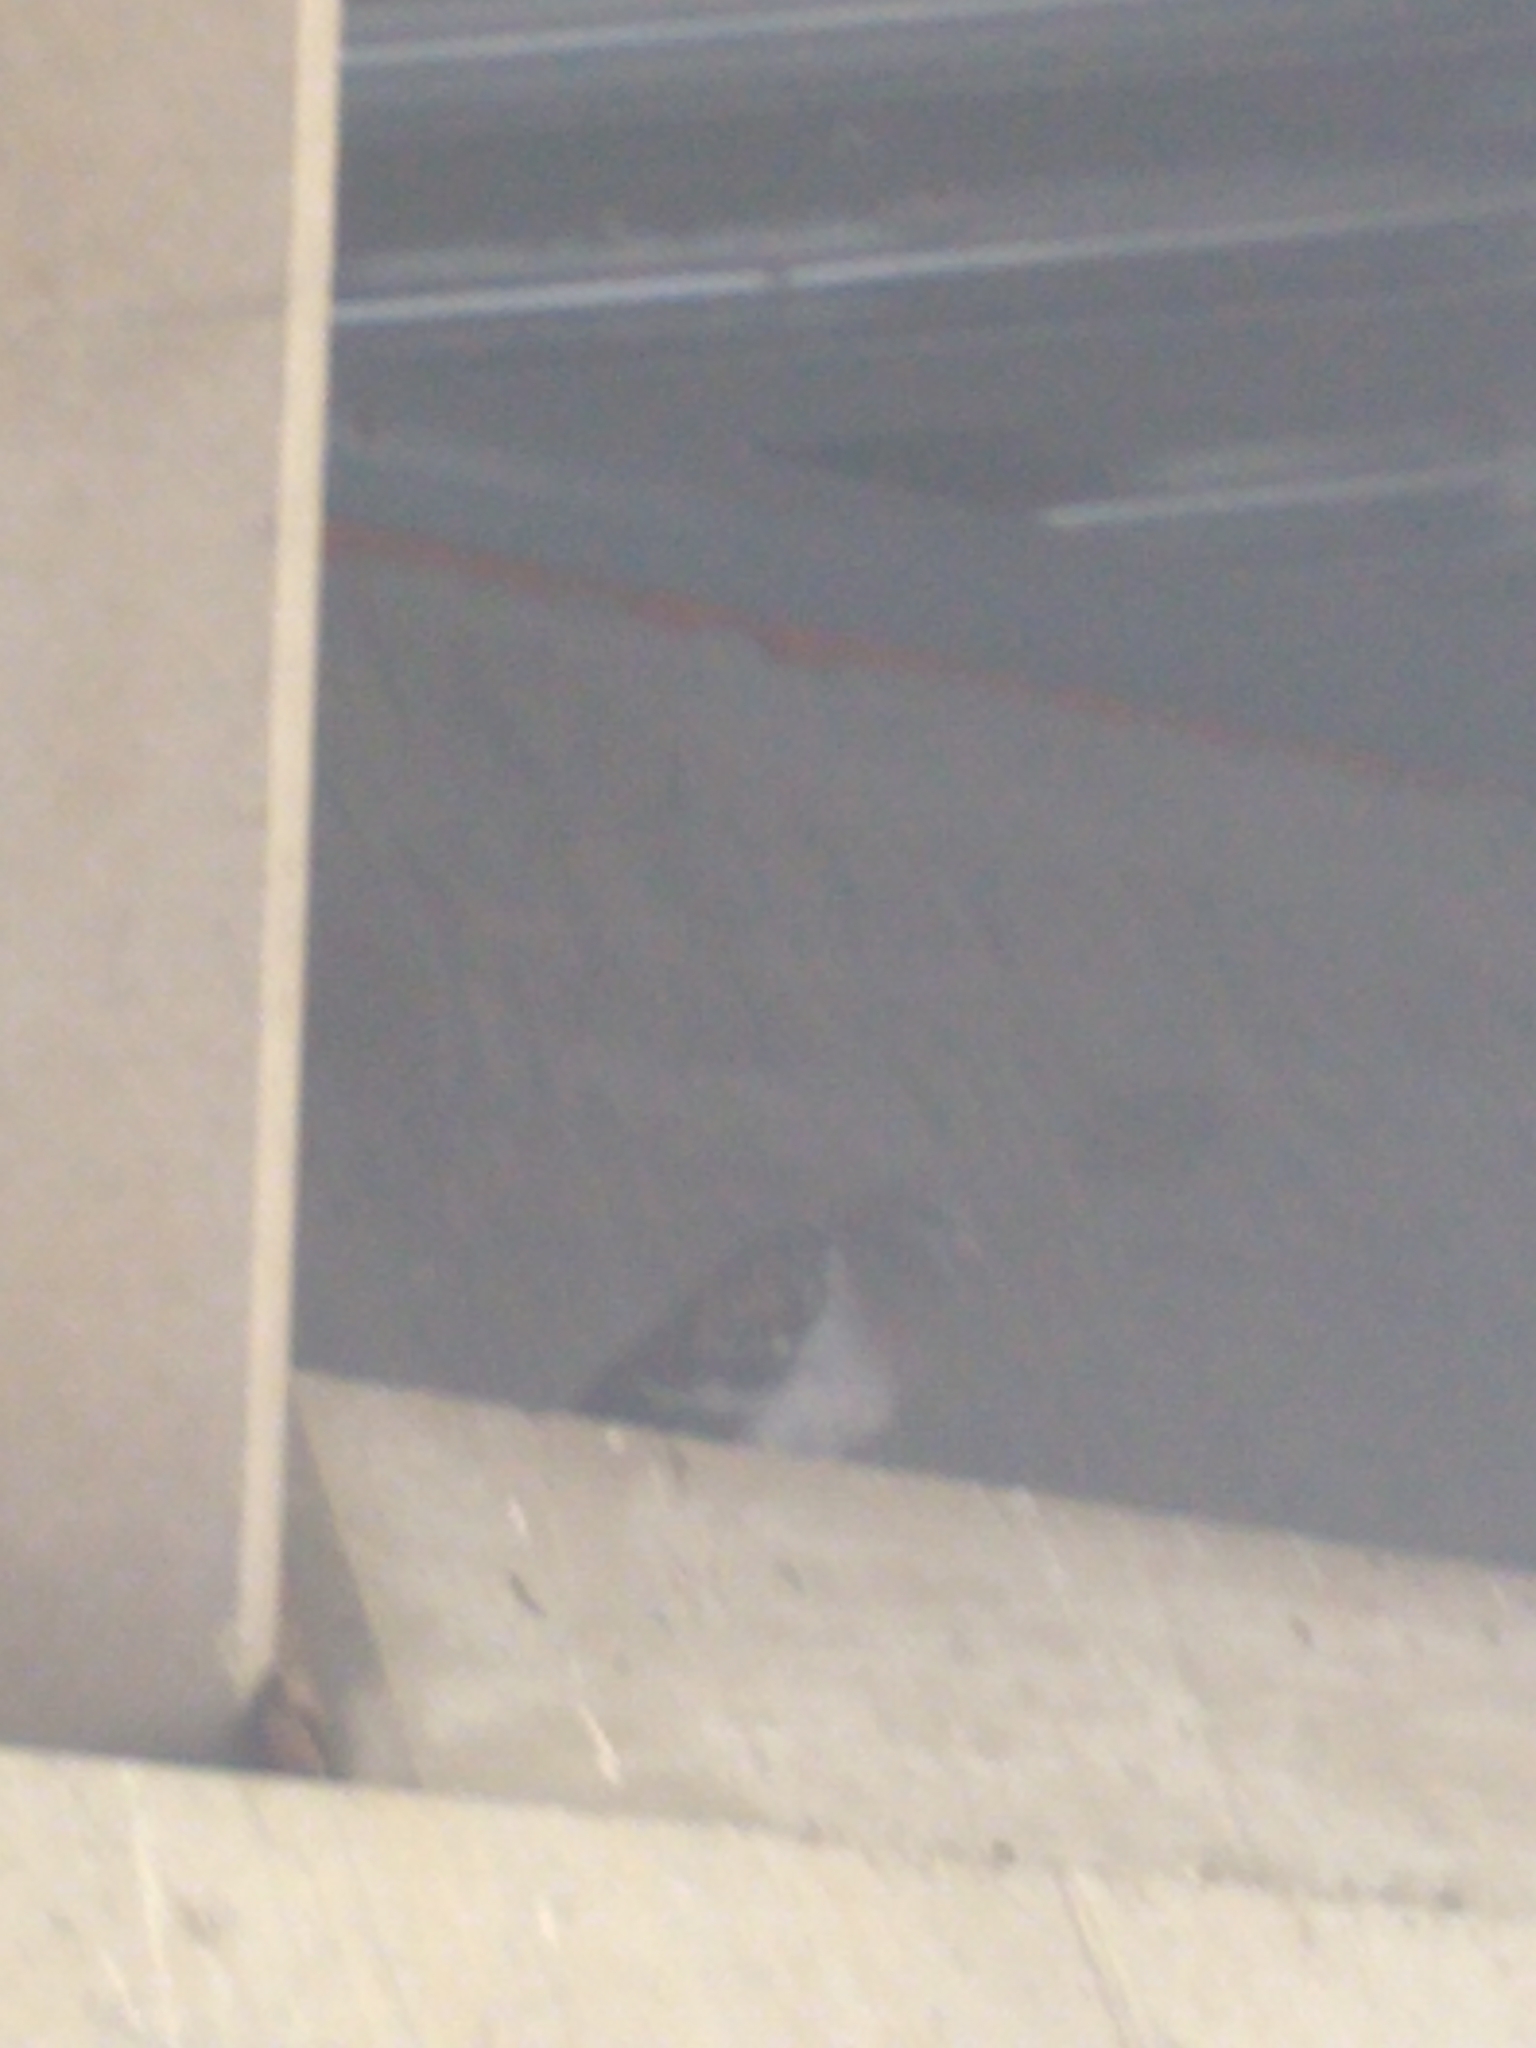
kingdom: Animalia
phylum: Chordata
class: Aves
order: Columbiformes
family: Columbidae
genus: Columba
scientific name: Columba livia
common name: Rock pigeon
